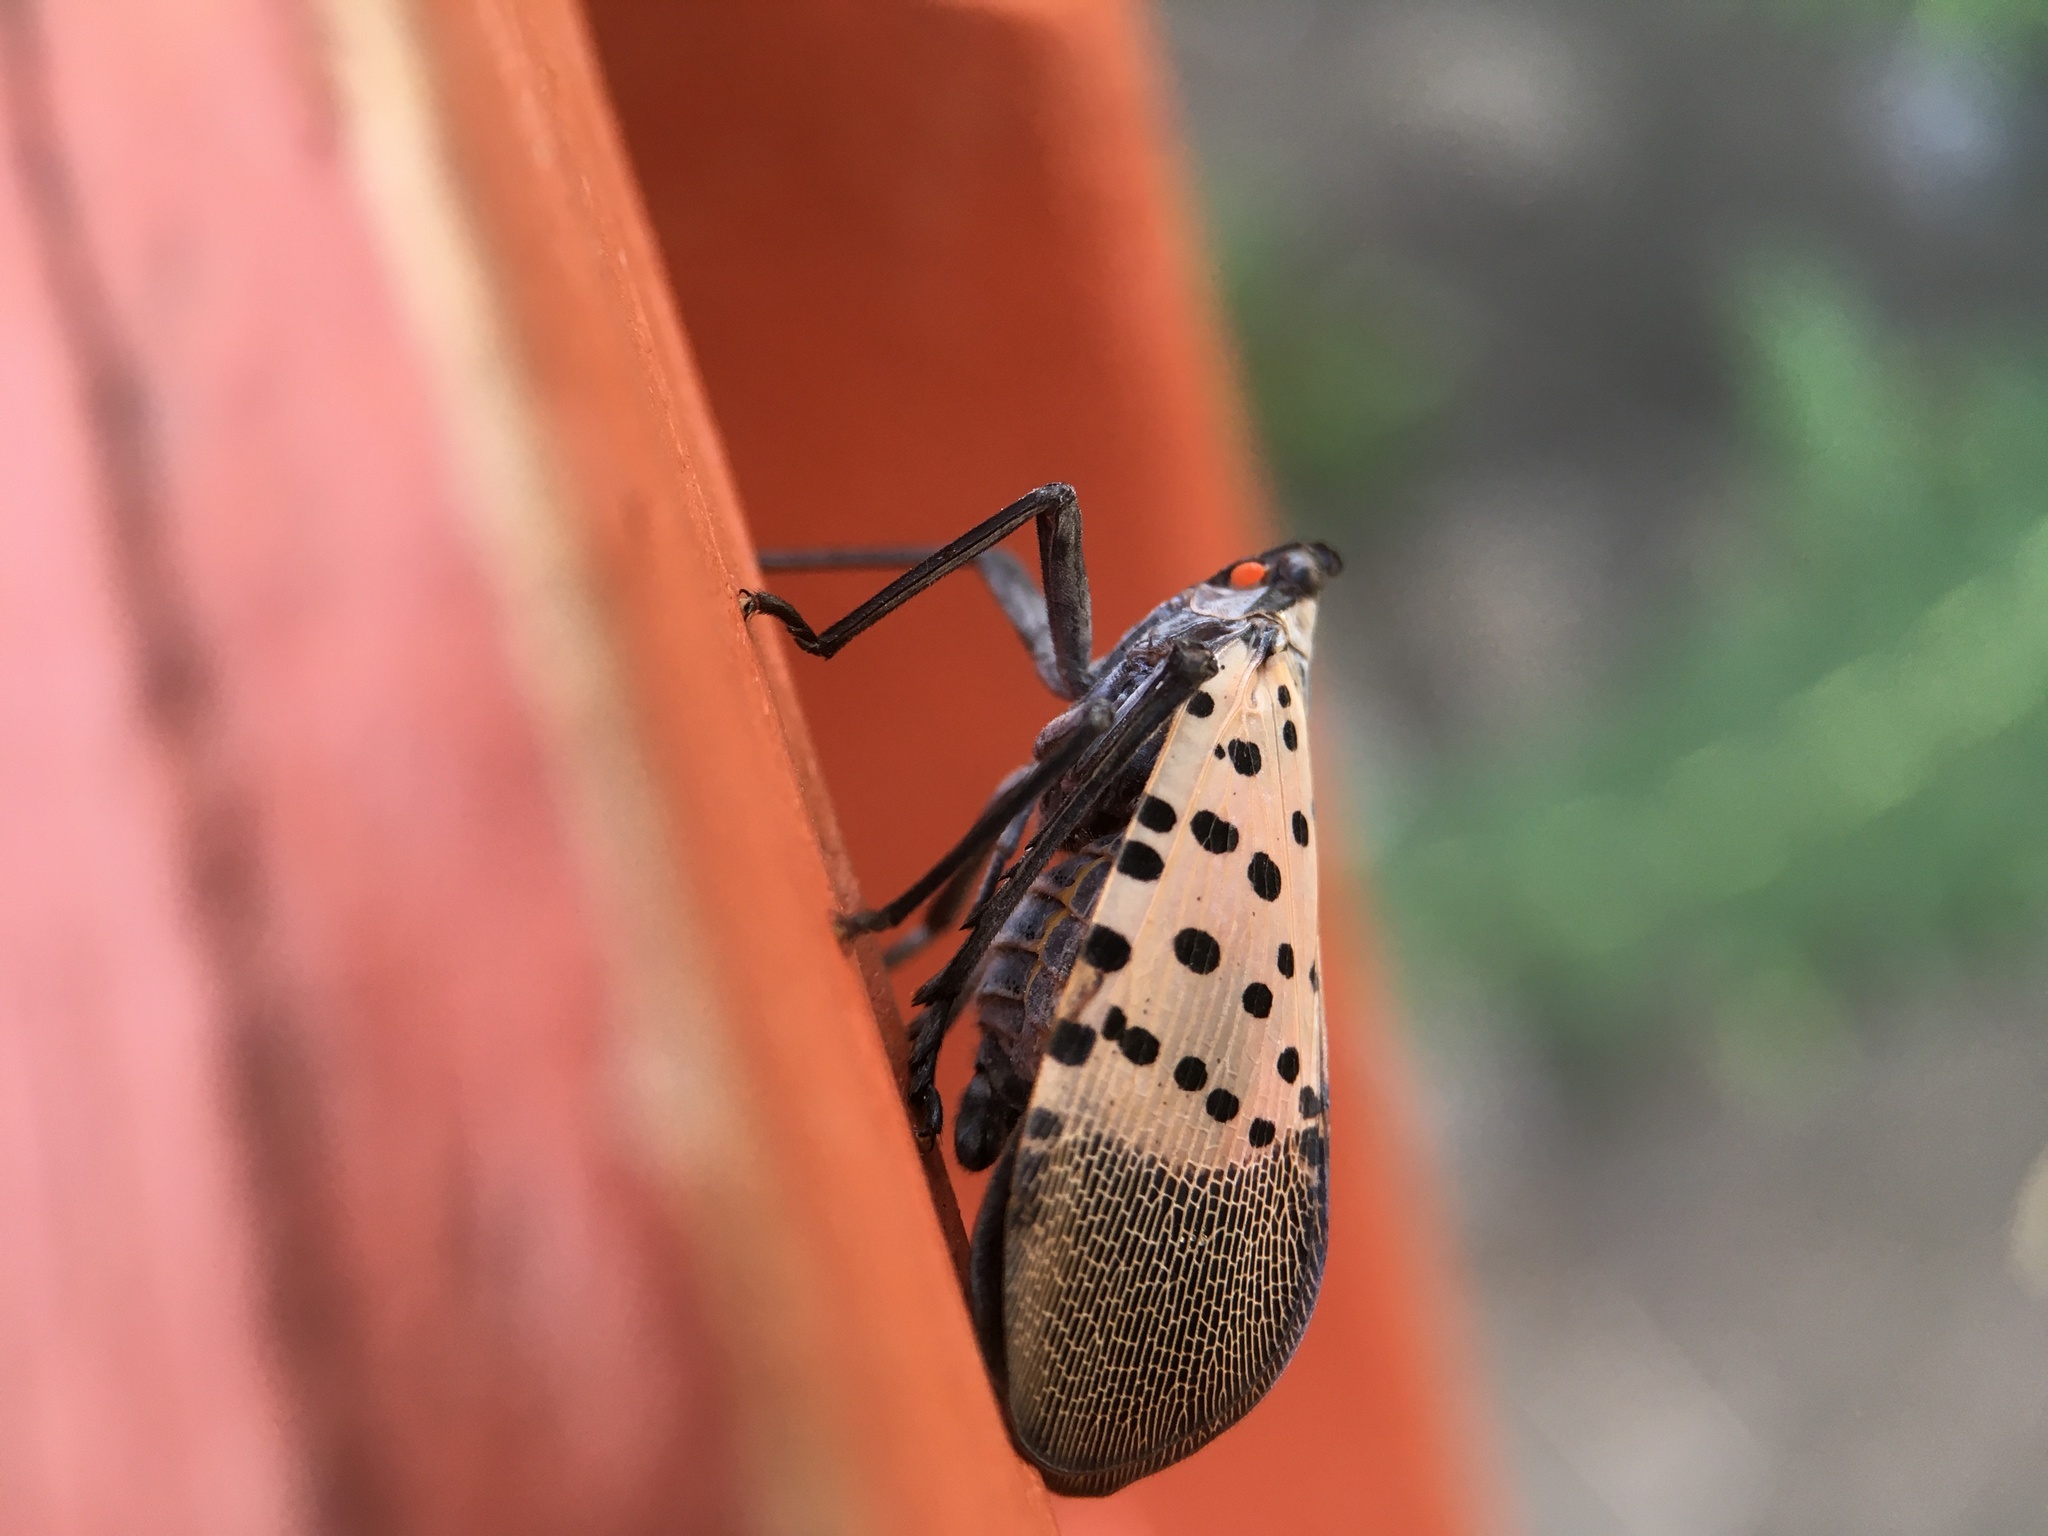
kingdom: Animalia
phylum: Arthropoda
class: Insecta
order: Hemiptera
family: Fulgoridae
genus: Lycorma
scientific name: Lycorma delicatula
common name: Spotted lanternfly
